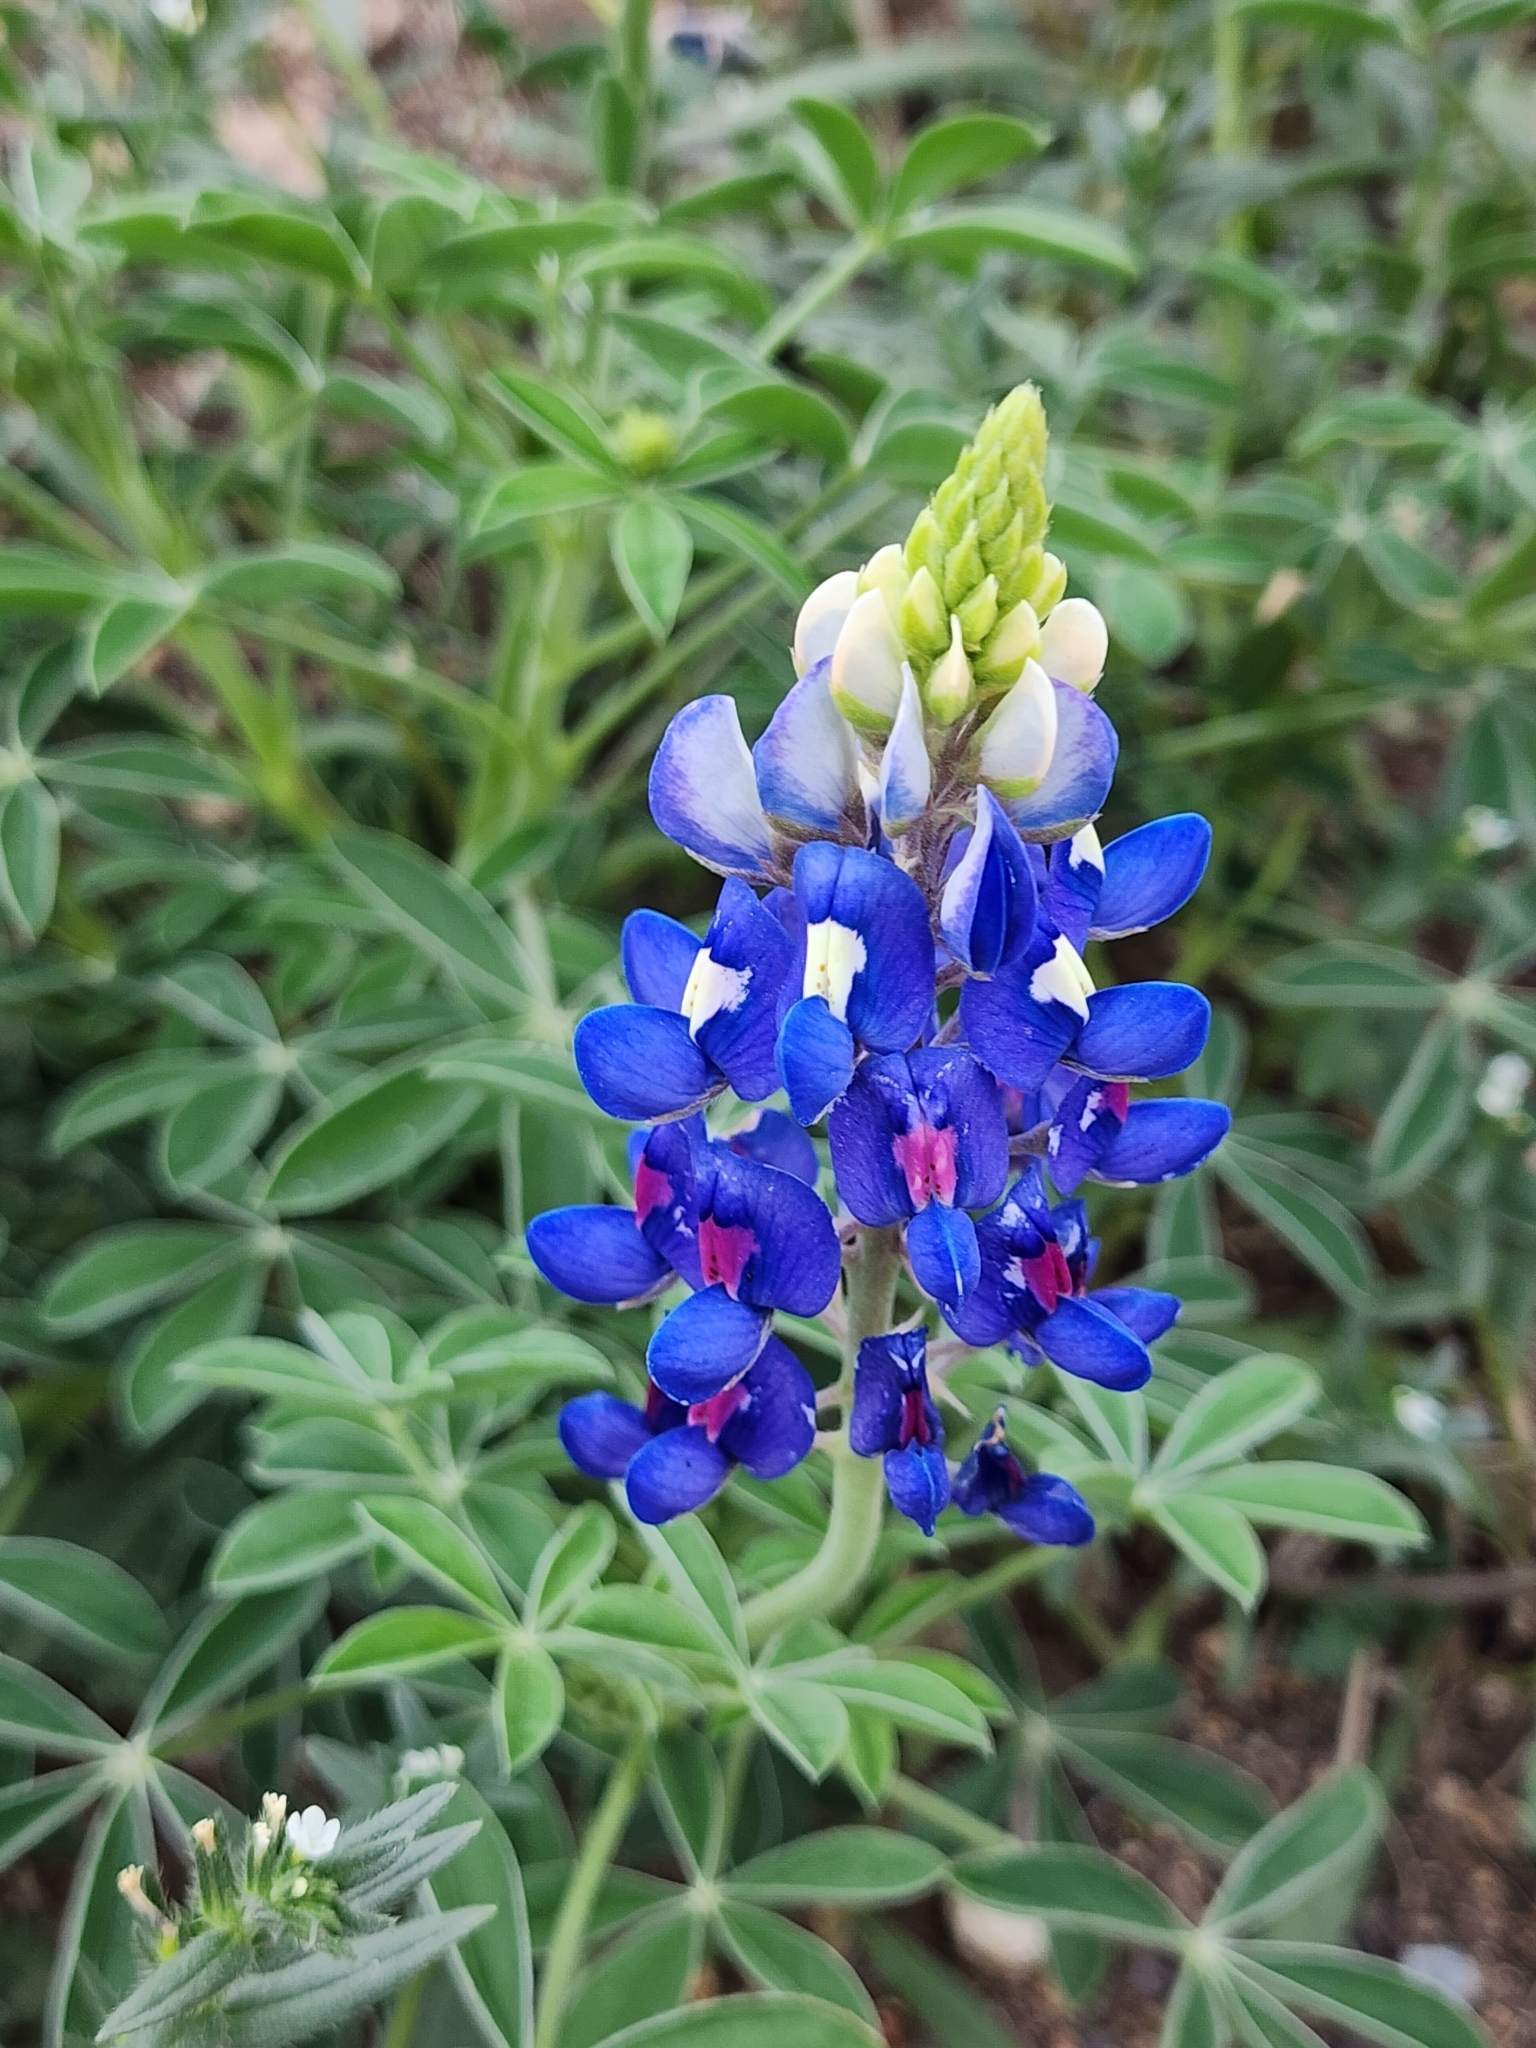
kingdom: Plantae
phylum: Tracheophyta
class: Magnoliopsida
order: Fabales
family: Fabaceae
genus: Lupinus
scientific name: Lupinus texensis
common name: Texas bluebonnet
